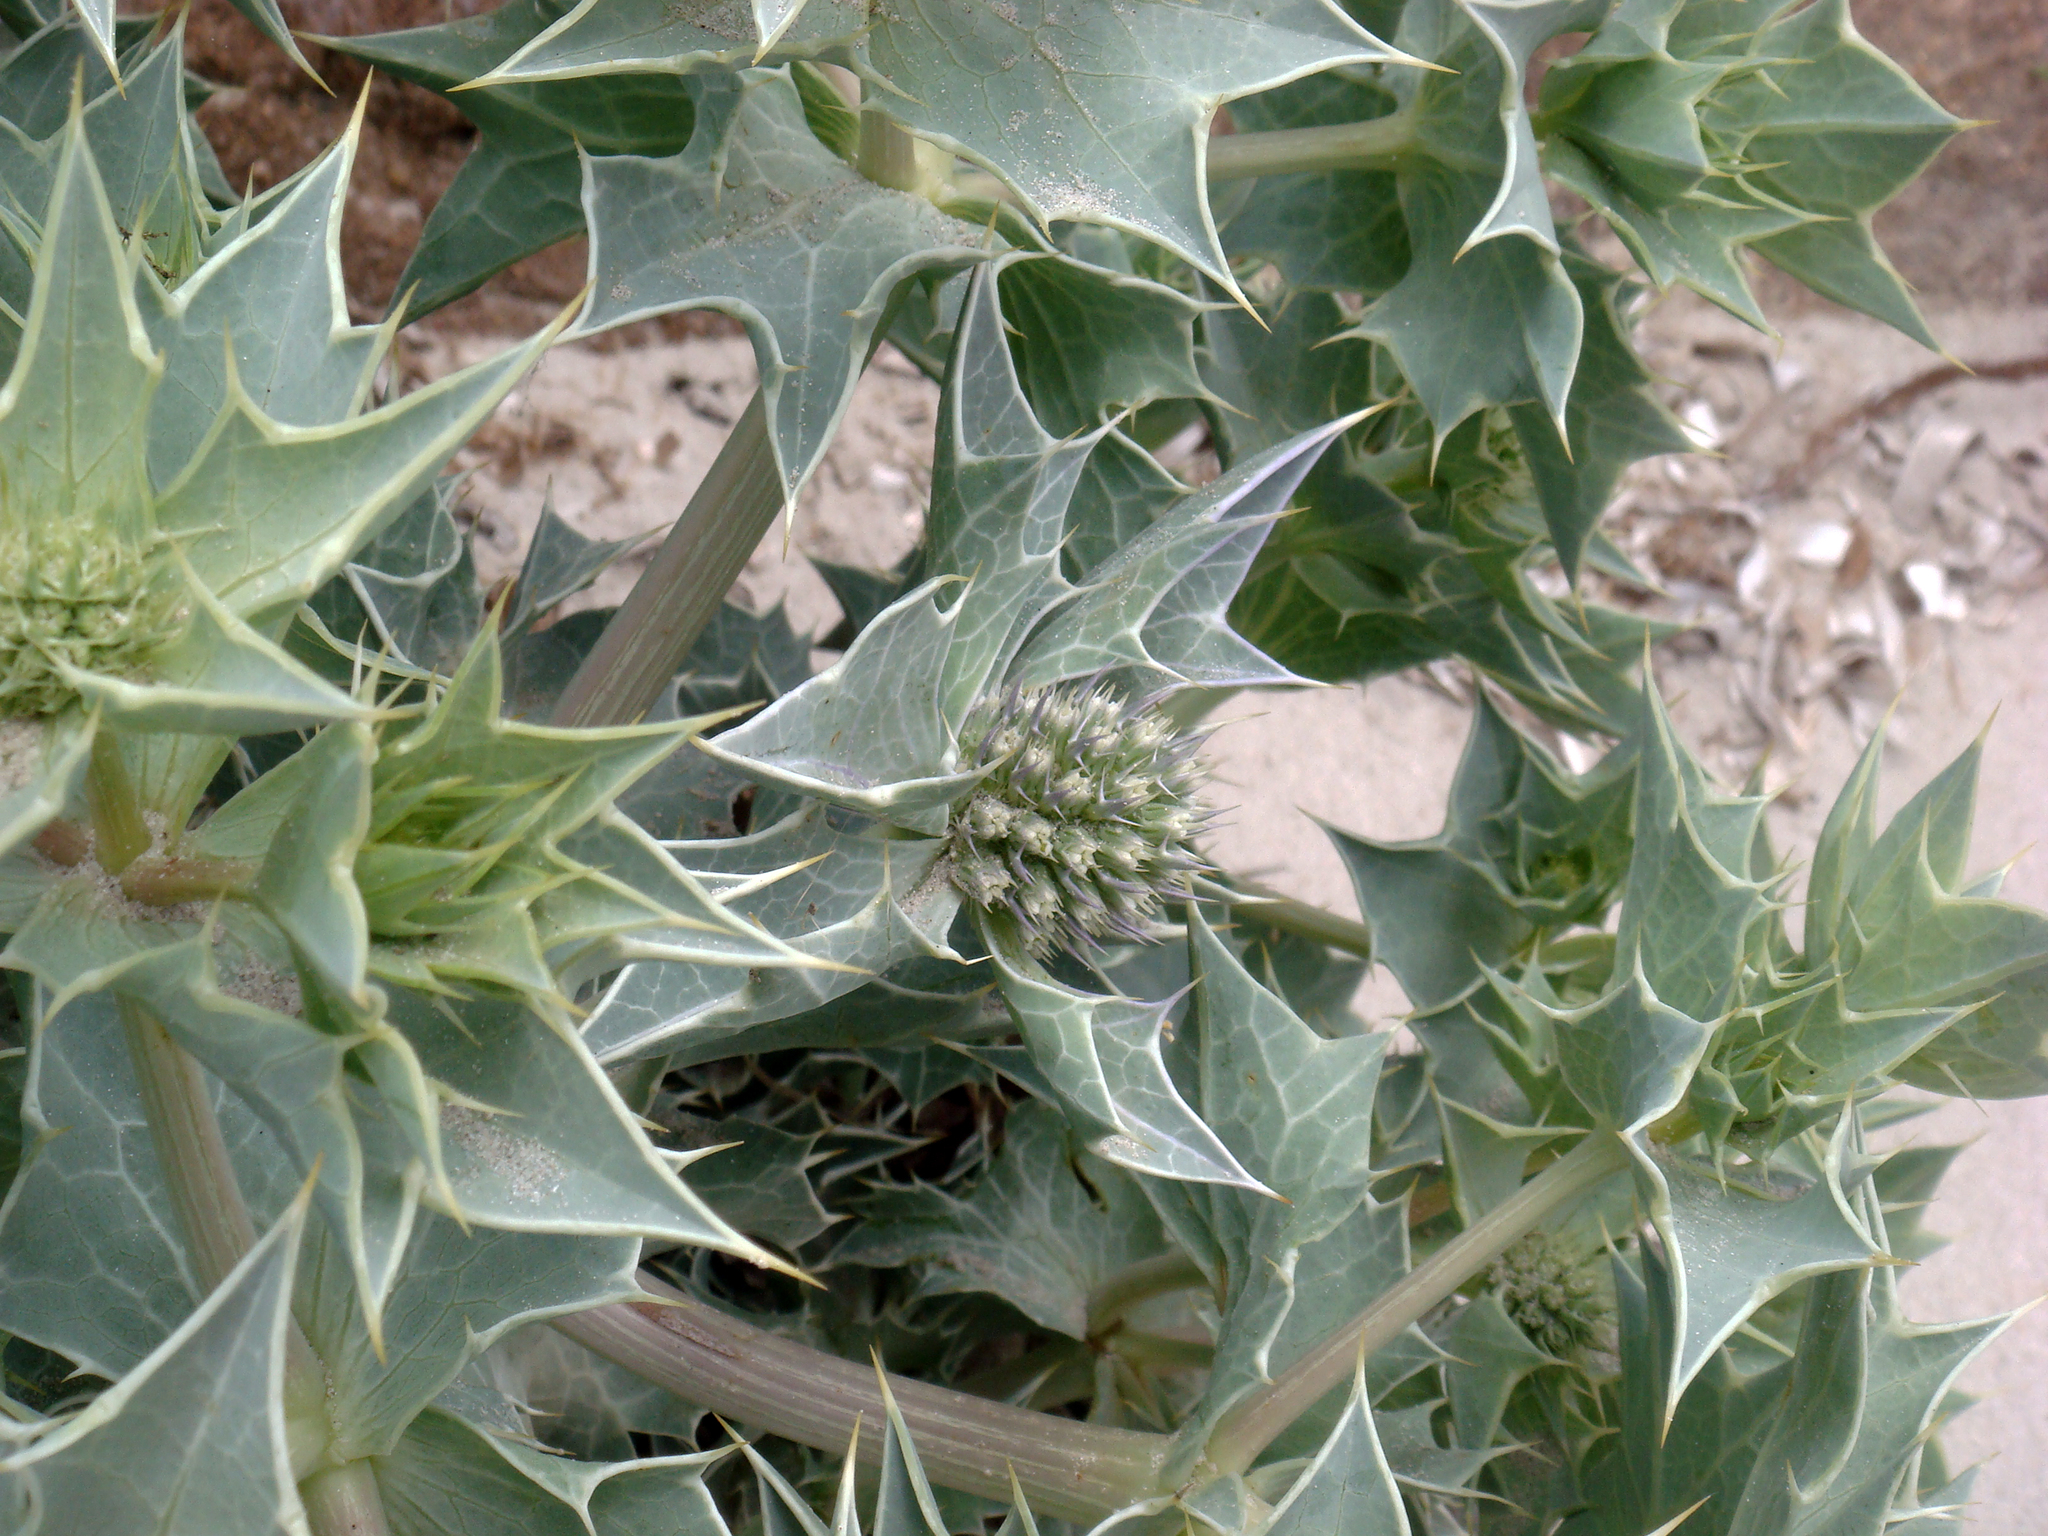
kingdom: Plantae
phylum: Tracheophyta
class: Magnoliopsida
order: Apiales
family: Apiaceae
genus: Eryngium
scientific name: Eryngium maritimum
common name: Sea-holly
